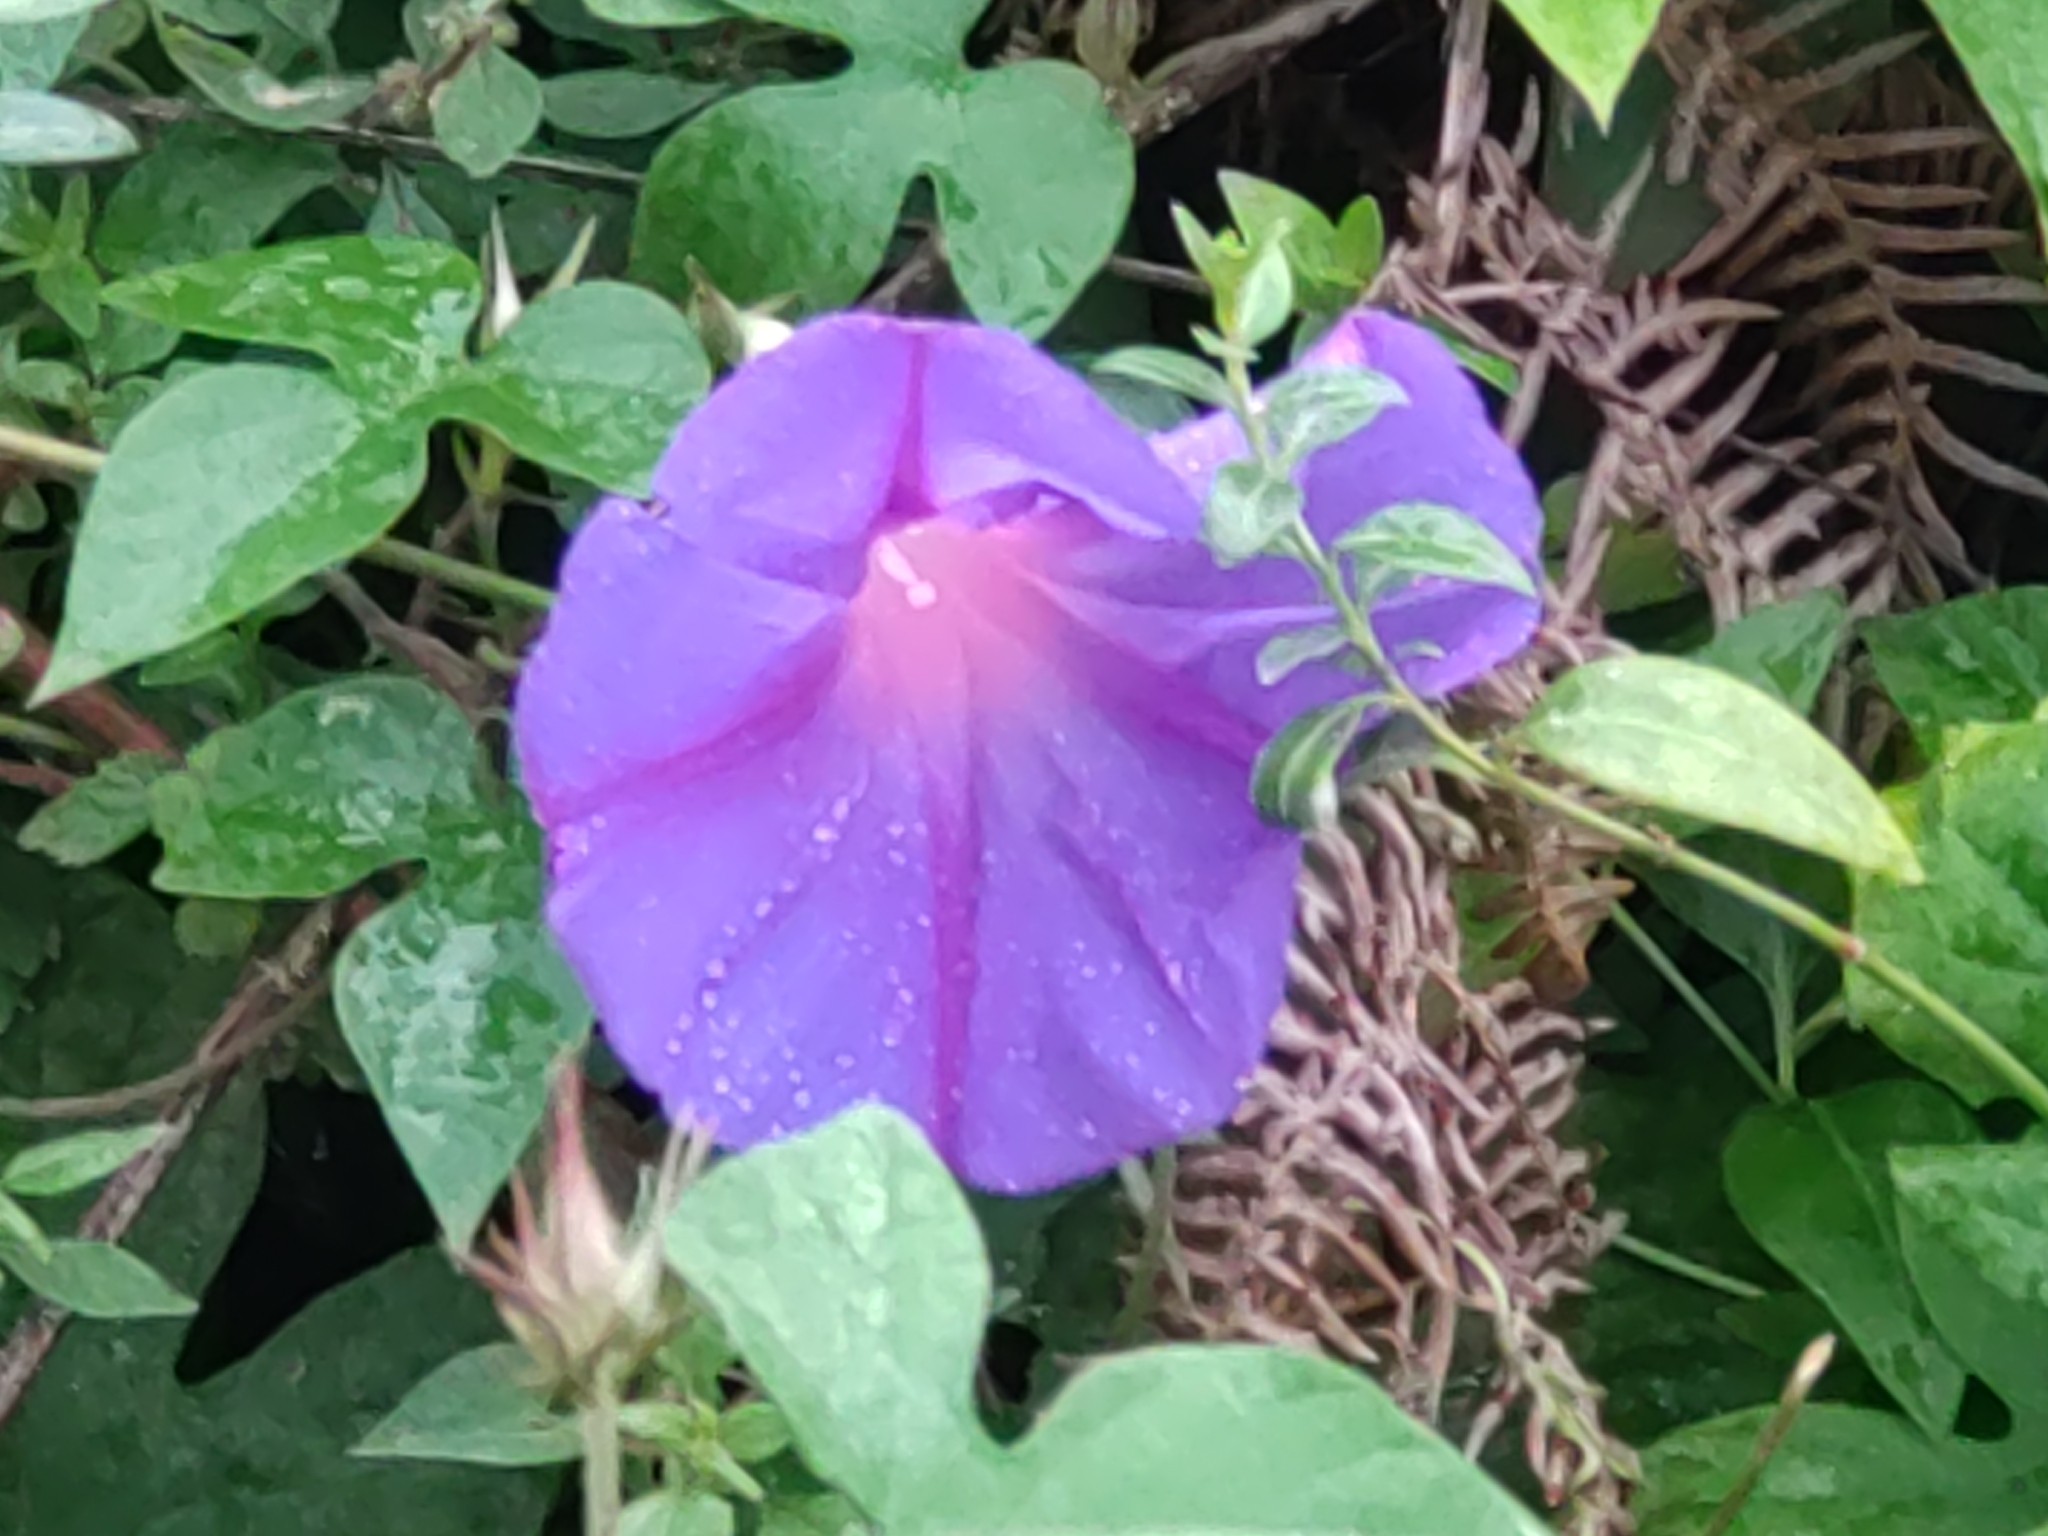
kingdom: Plantae
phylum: Tracheophyta
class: Magnoliopsida
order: Solanales
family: Convolvulaceae
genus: Ipomoea
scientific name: Ipomoea indica
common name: Blue dawnflower
